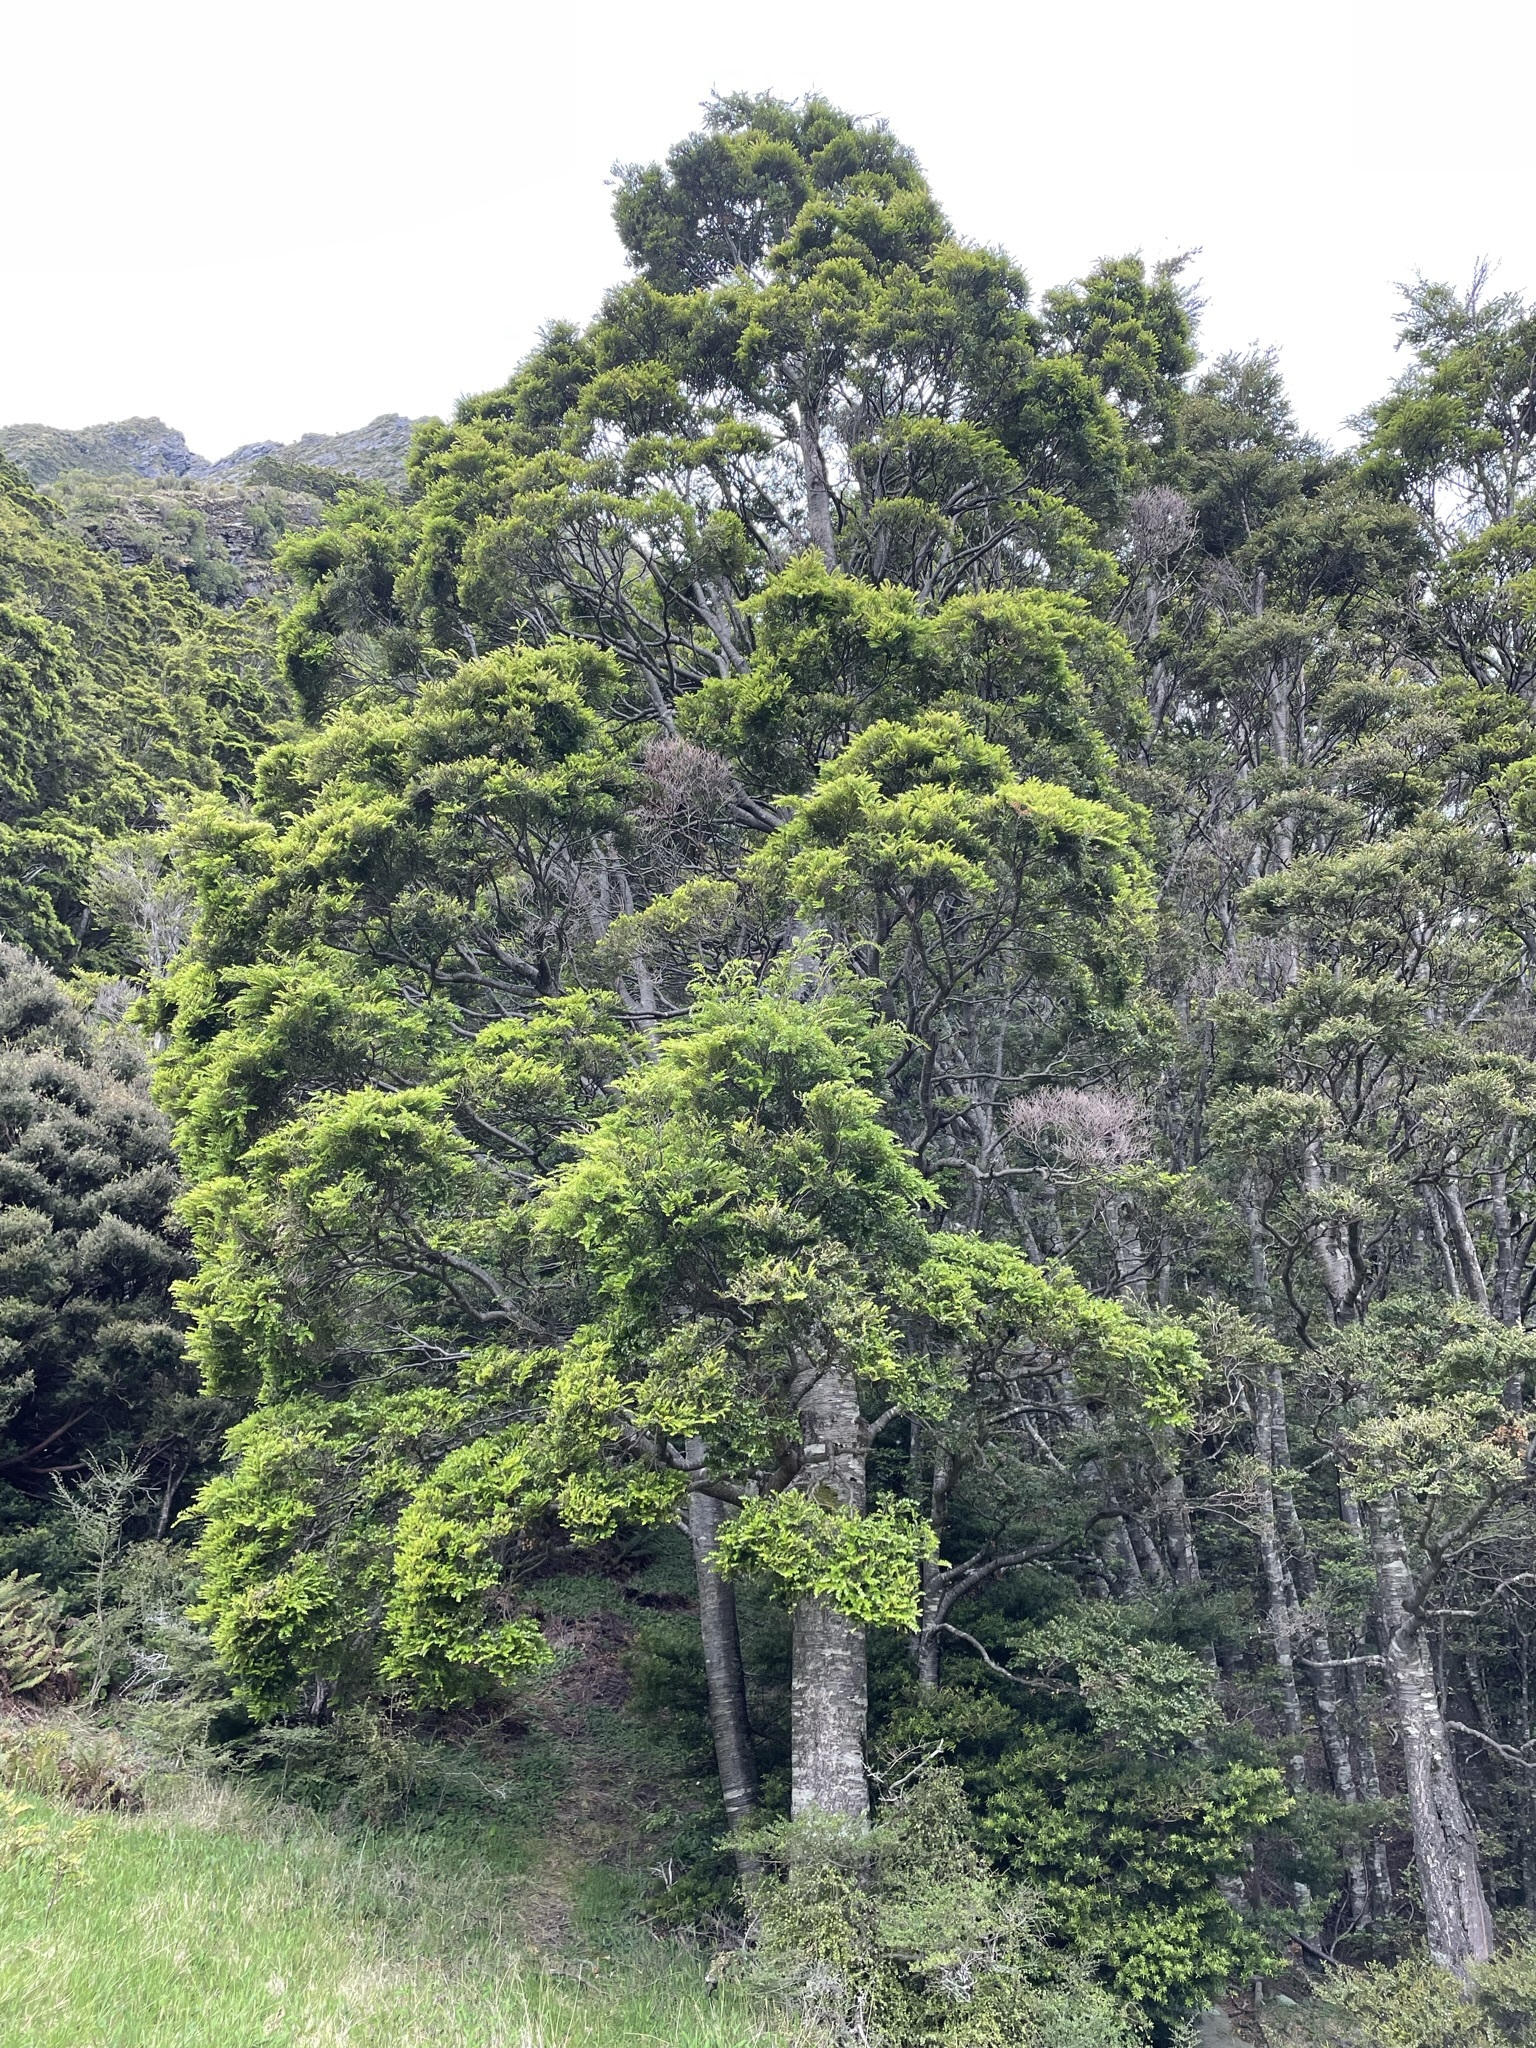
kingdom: Plantae
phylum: Tracheophyta
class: Magnoliopsida
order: Fagales
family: Nothofagaceae
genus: Nothofagus
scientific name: Nothofagus menziesii
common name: Silver beech
